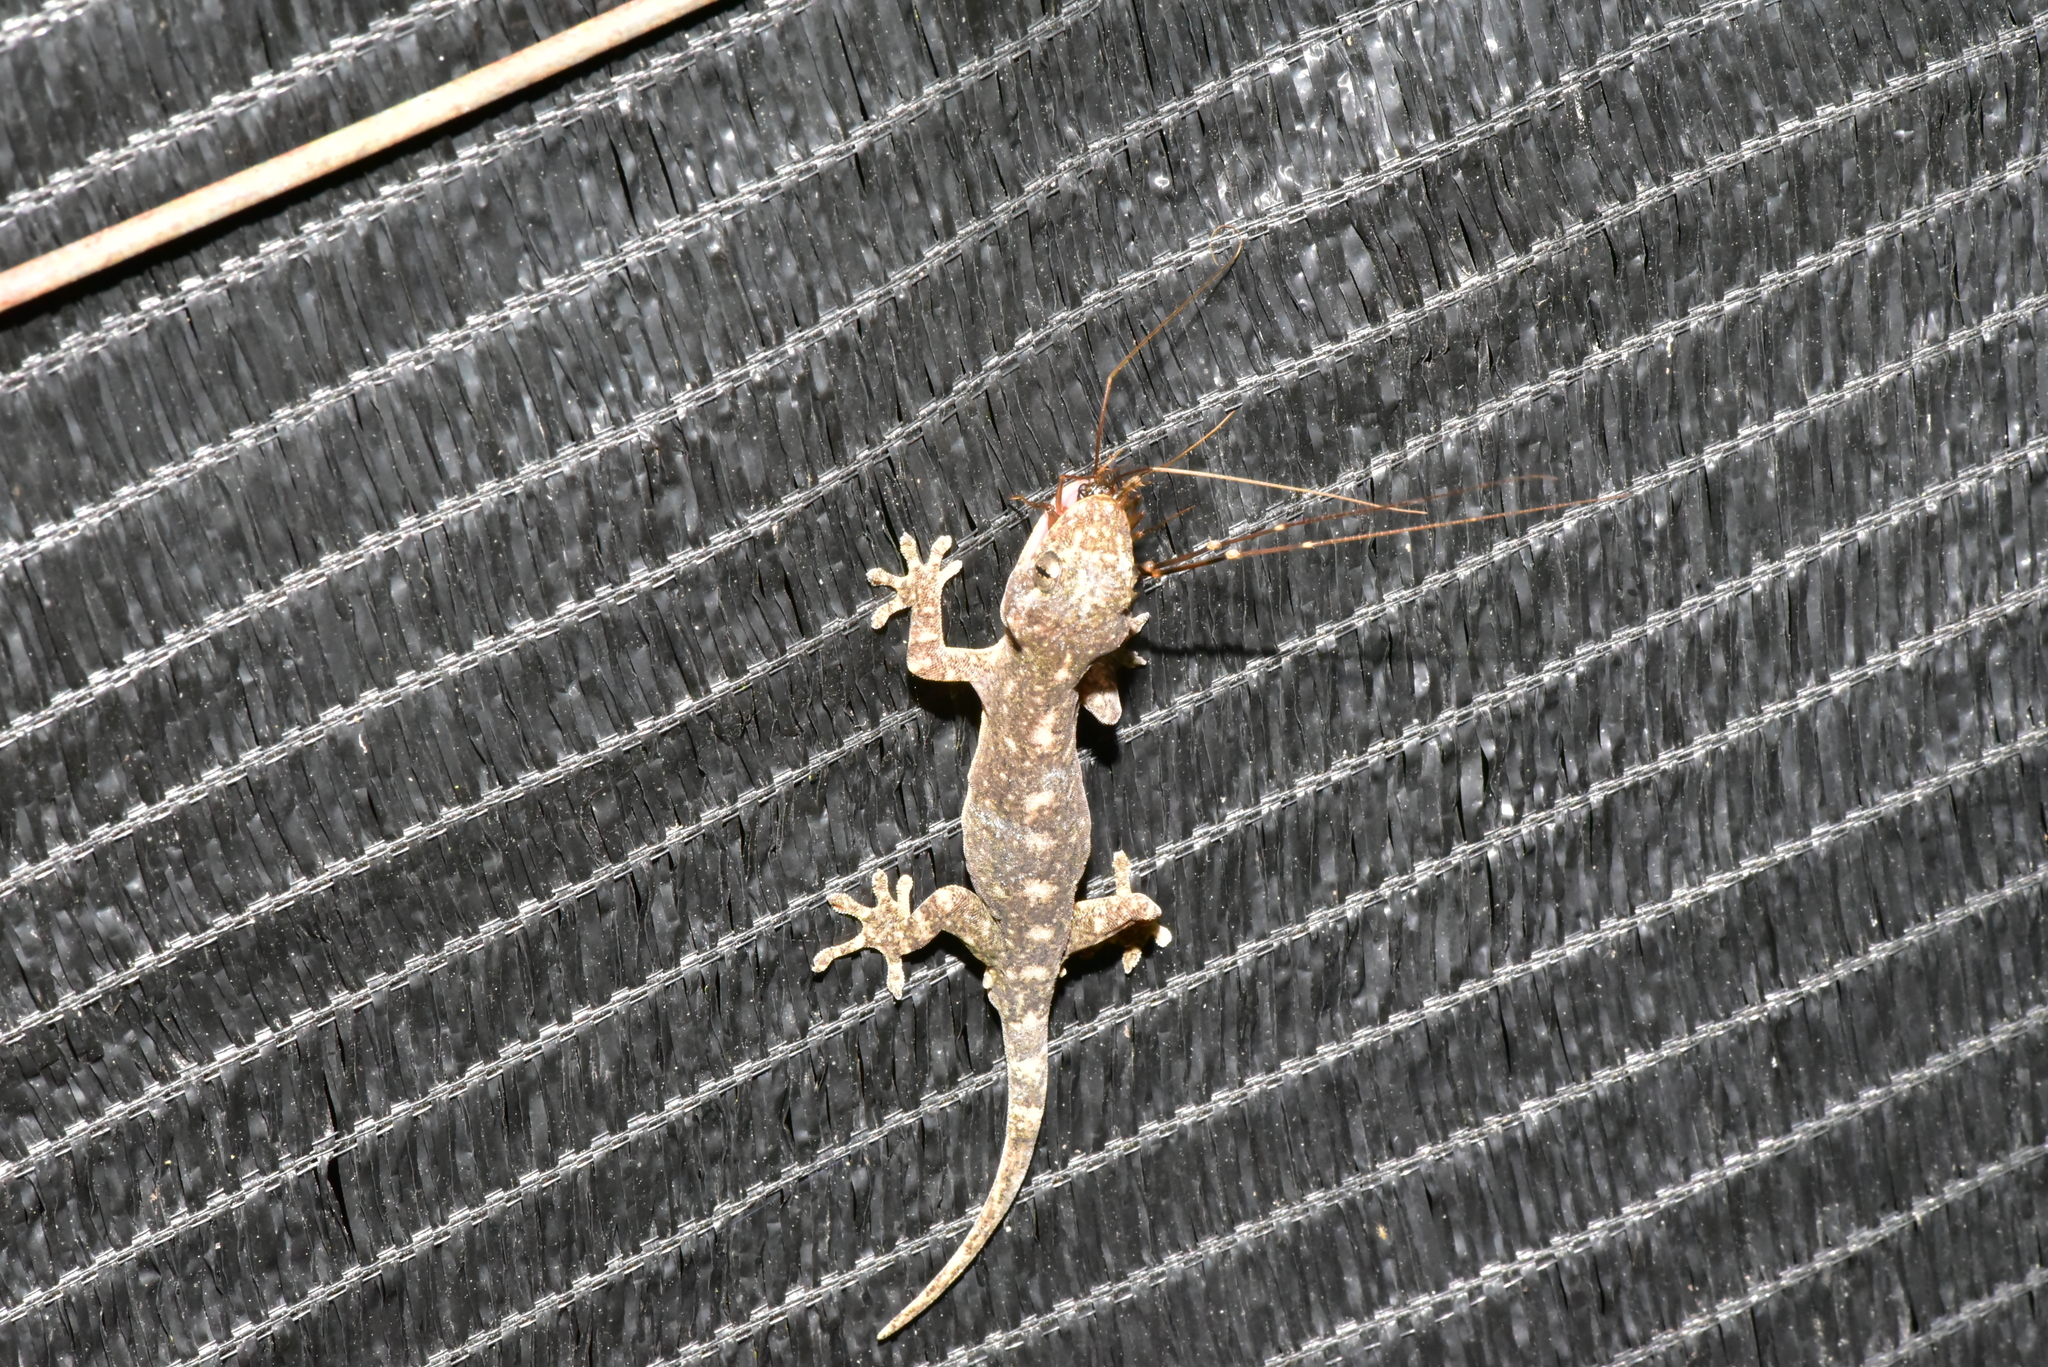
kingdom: Animalia
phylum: Chordata
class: Squamata
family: Gekkonidae
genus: Gekko
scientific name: Gekko hokouensis
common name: Kwangsi gecko
